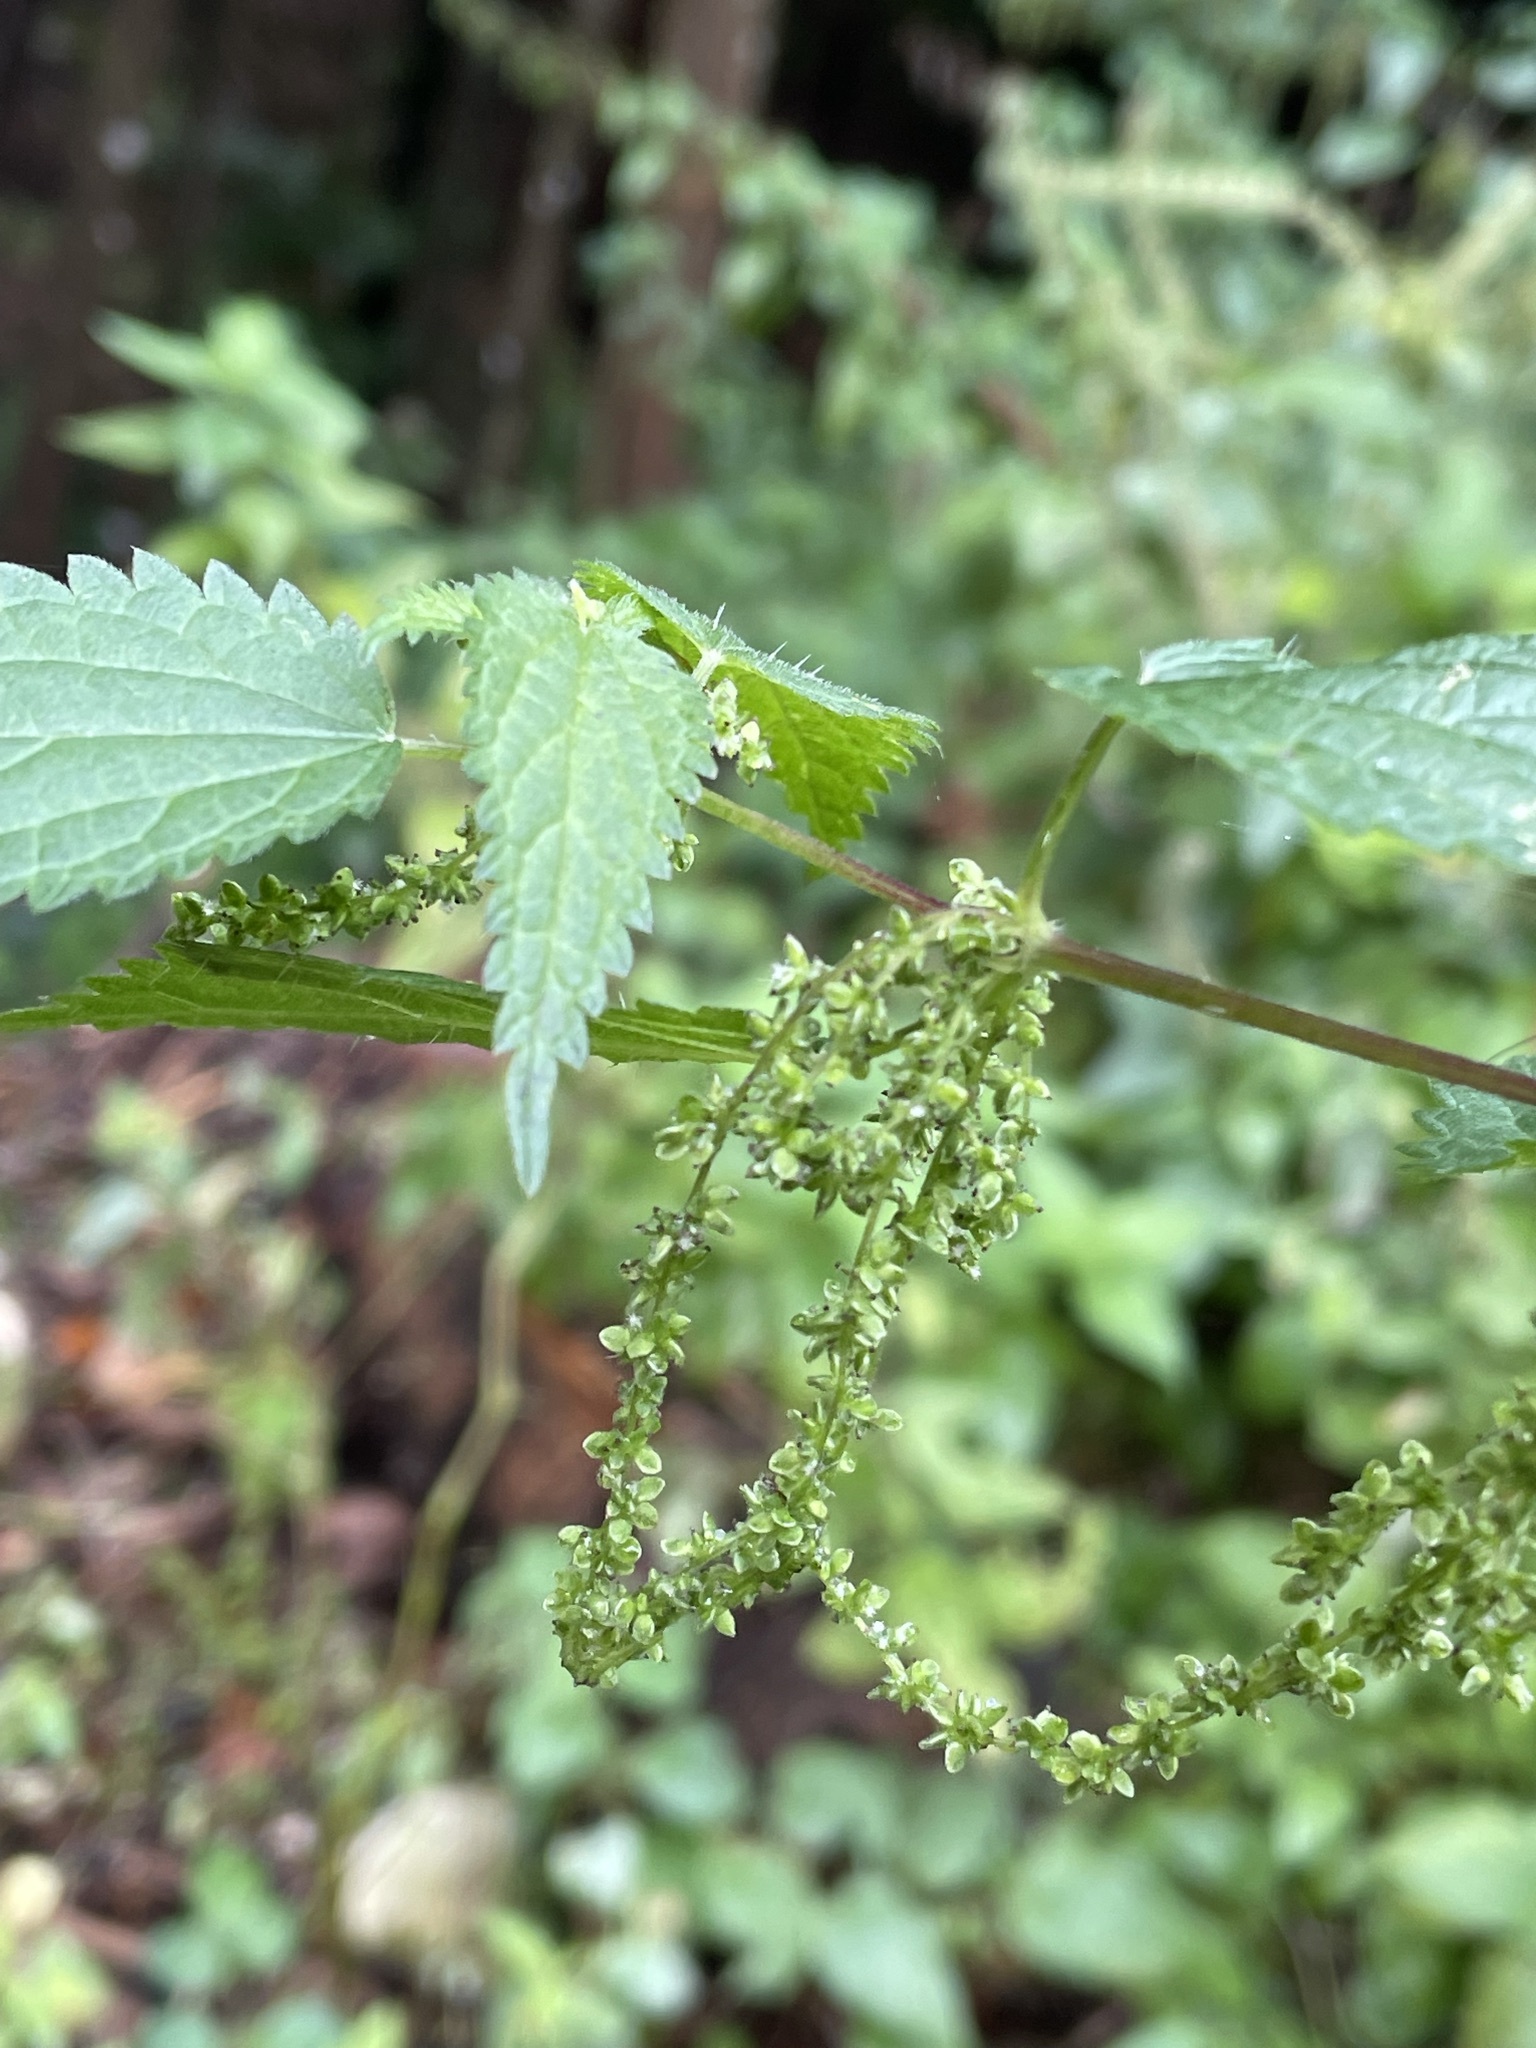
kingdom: Plantae
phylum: Tracheophyta
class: Magnoliopsida
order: Rosales
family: Urticaceae
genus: Urtica
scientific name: Urtica dioica
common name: Common nettle
